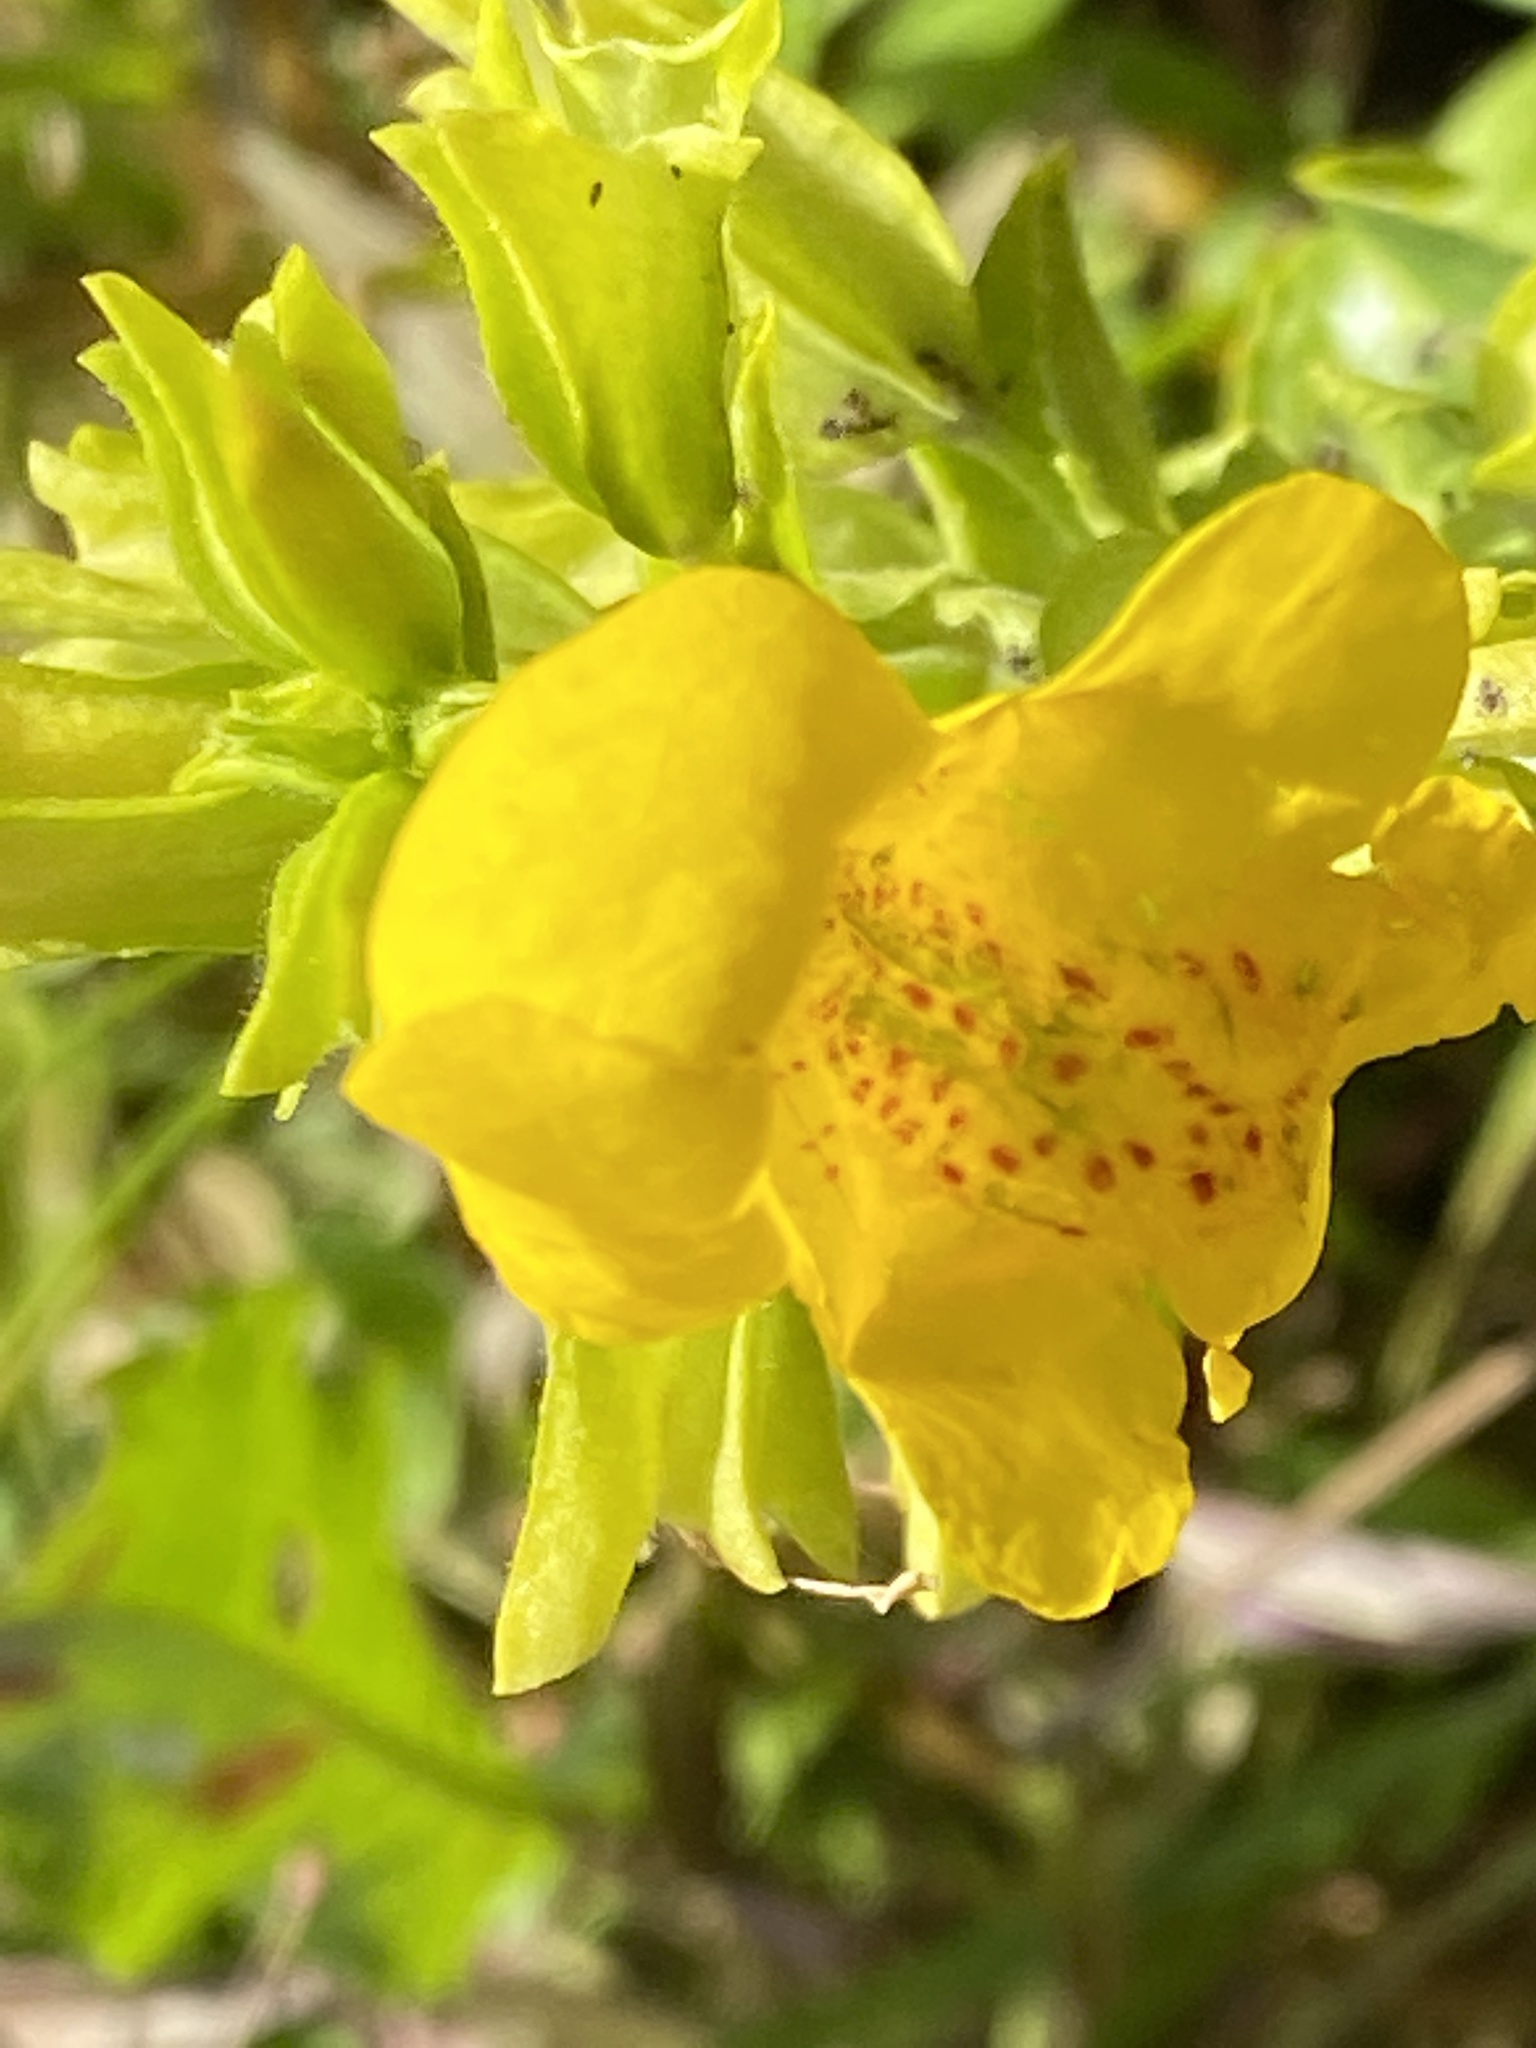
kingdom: Plantae
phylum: Tracheophyta
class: Magnoliopsida
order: Lamiales
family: Phrymaceae
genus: Erythranthe
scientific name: Erythranthe guttata
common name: Monkeyflower
